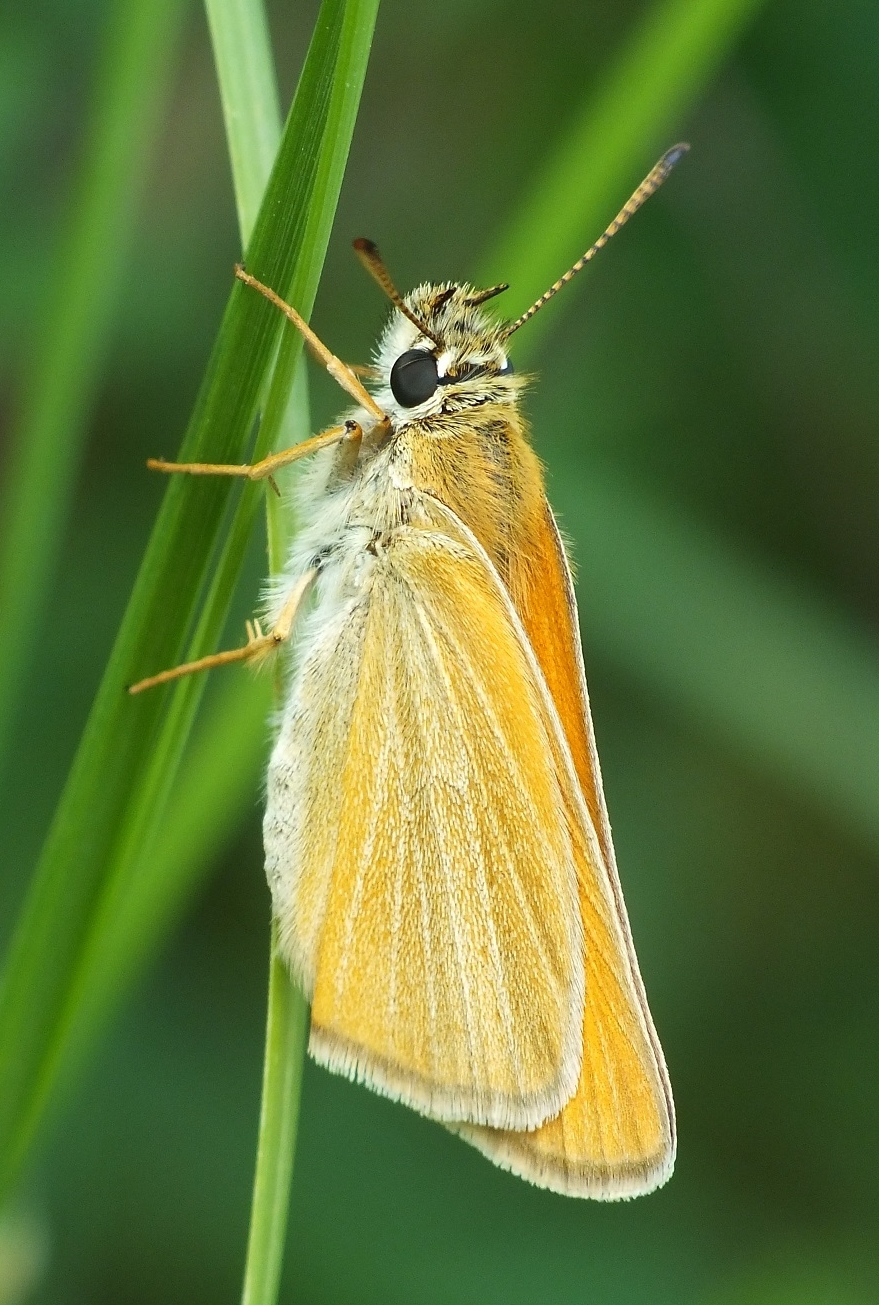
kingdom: Animalia
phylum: Arthropoda
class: Insecta
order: Lepidoptera
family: Hesperiidae
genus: Thymelicus
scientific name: Thymelicus lineola
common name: Essex skipper
